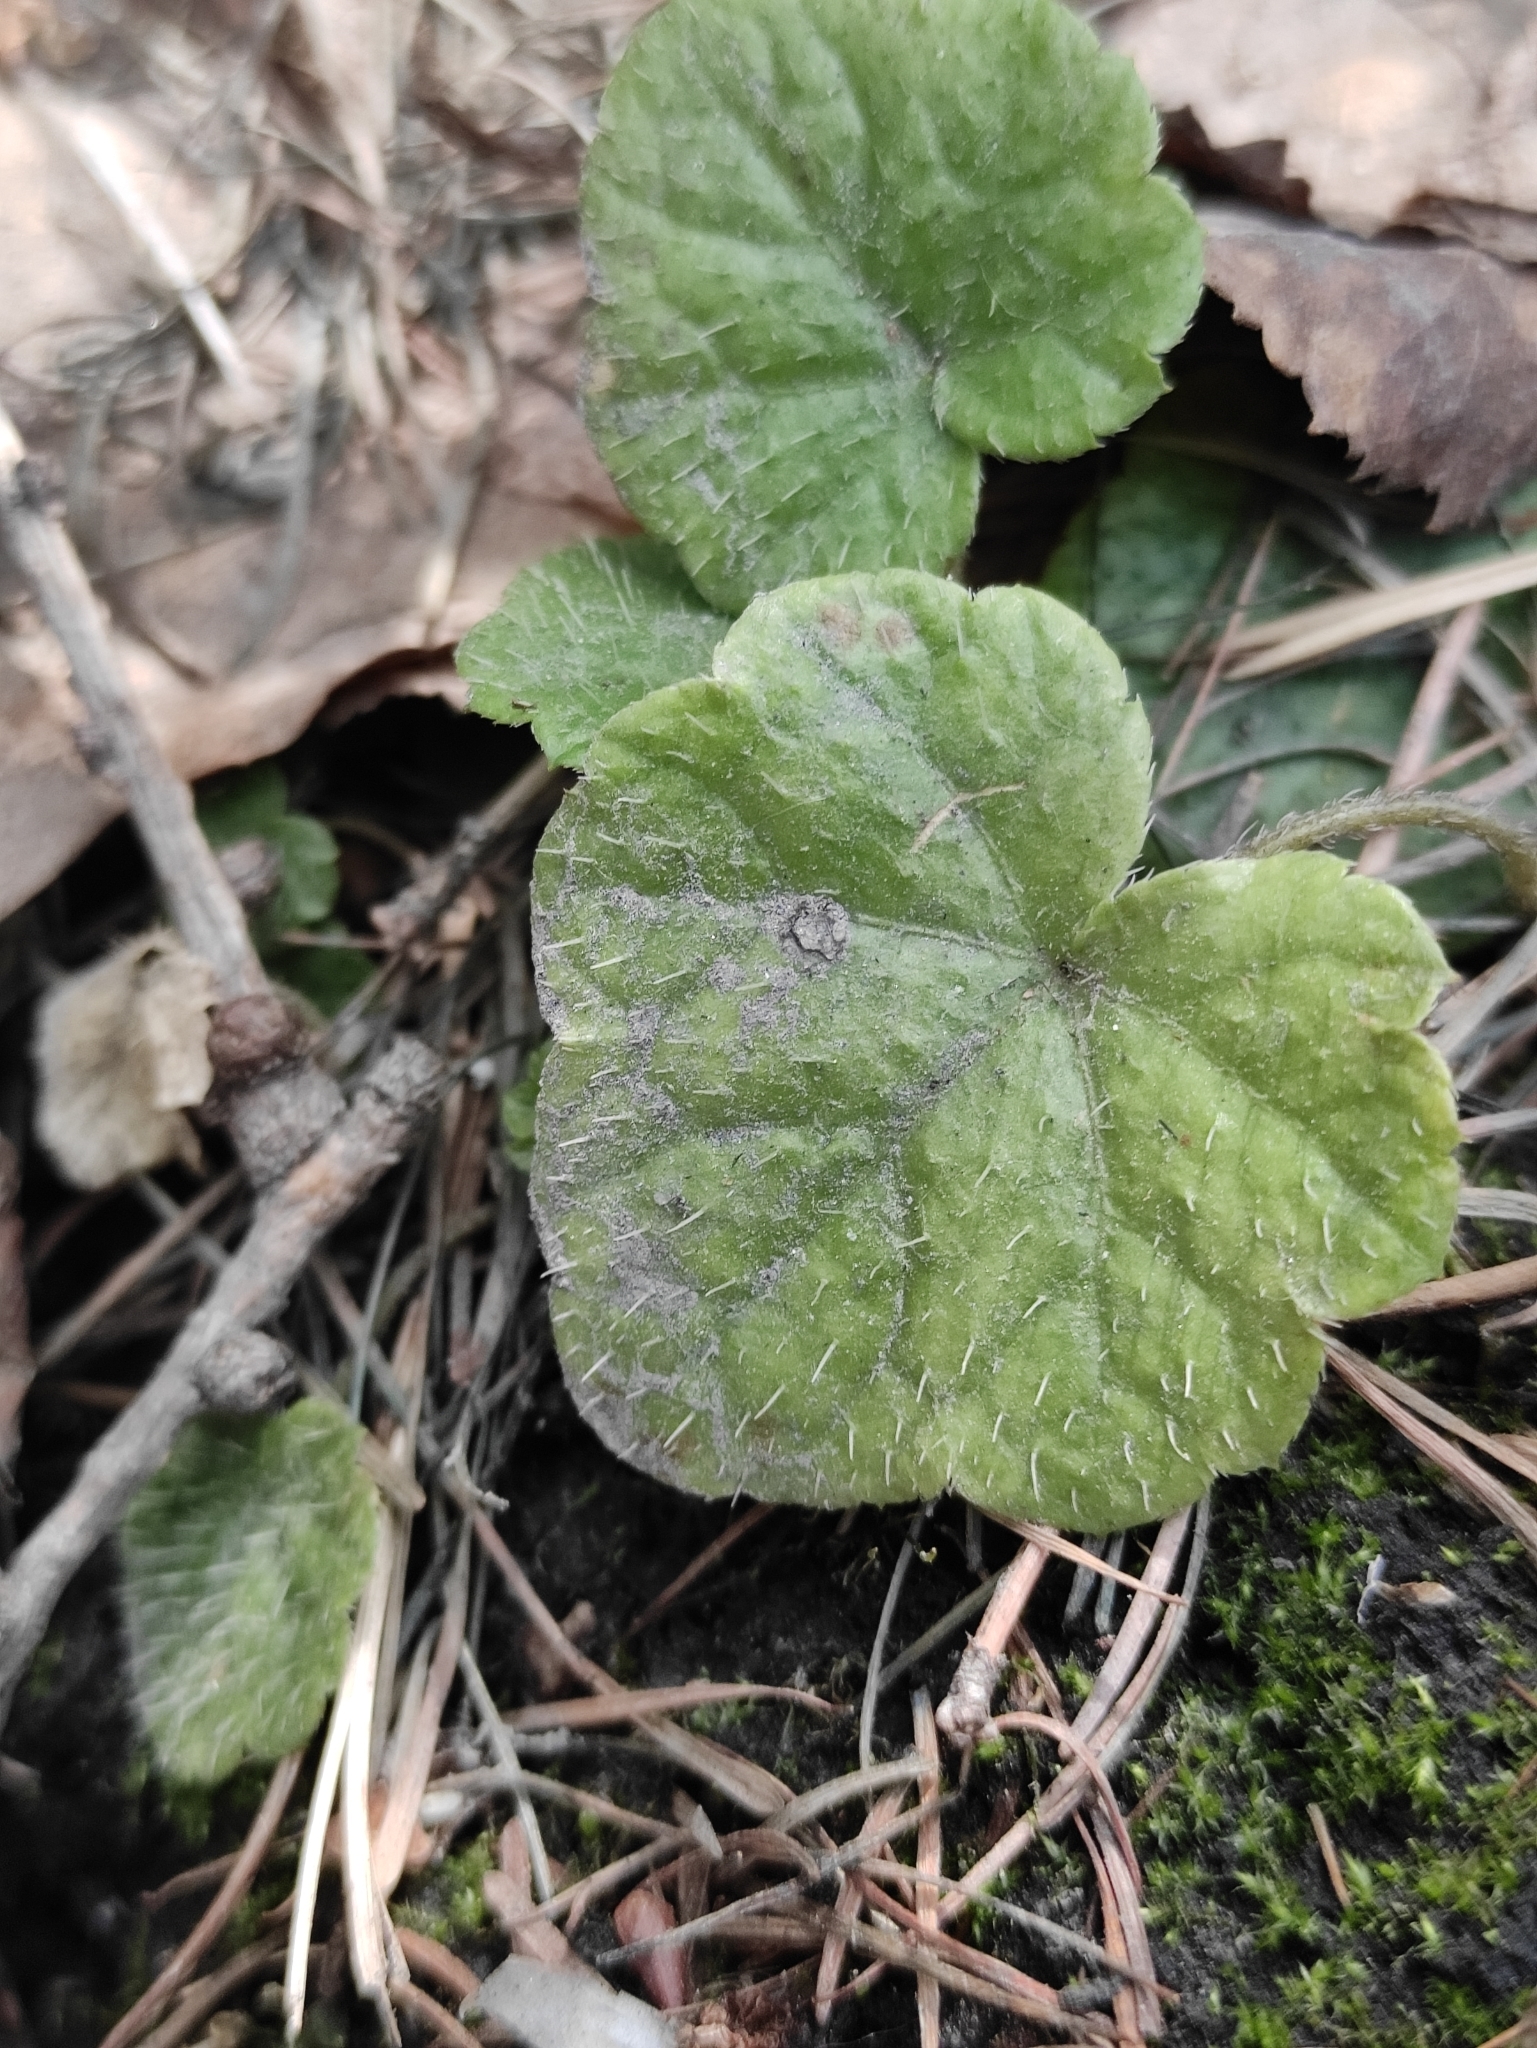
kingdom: Plantae
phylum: Tracheophyta
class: Magnoliopsida
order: Saxifragales
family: Saxifragaceae
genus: Mitella
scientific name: Mitella nuda
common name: Bare-stemmed bishop's-cap
